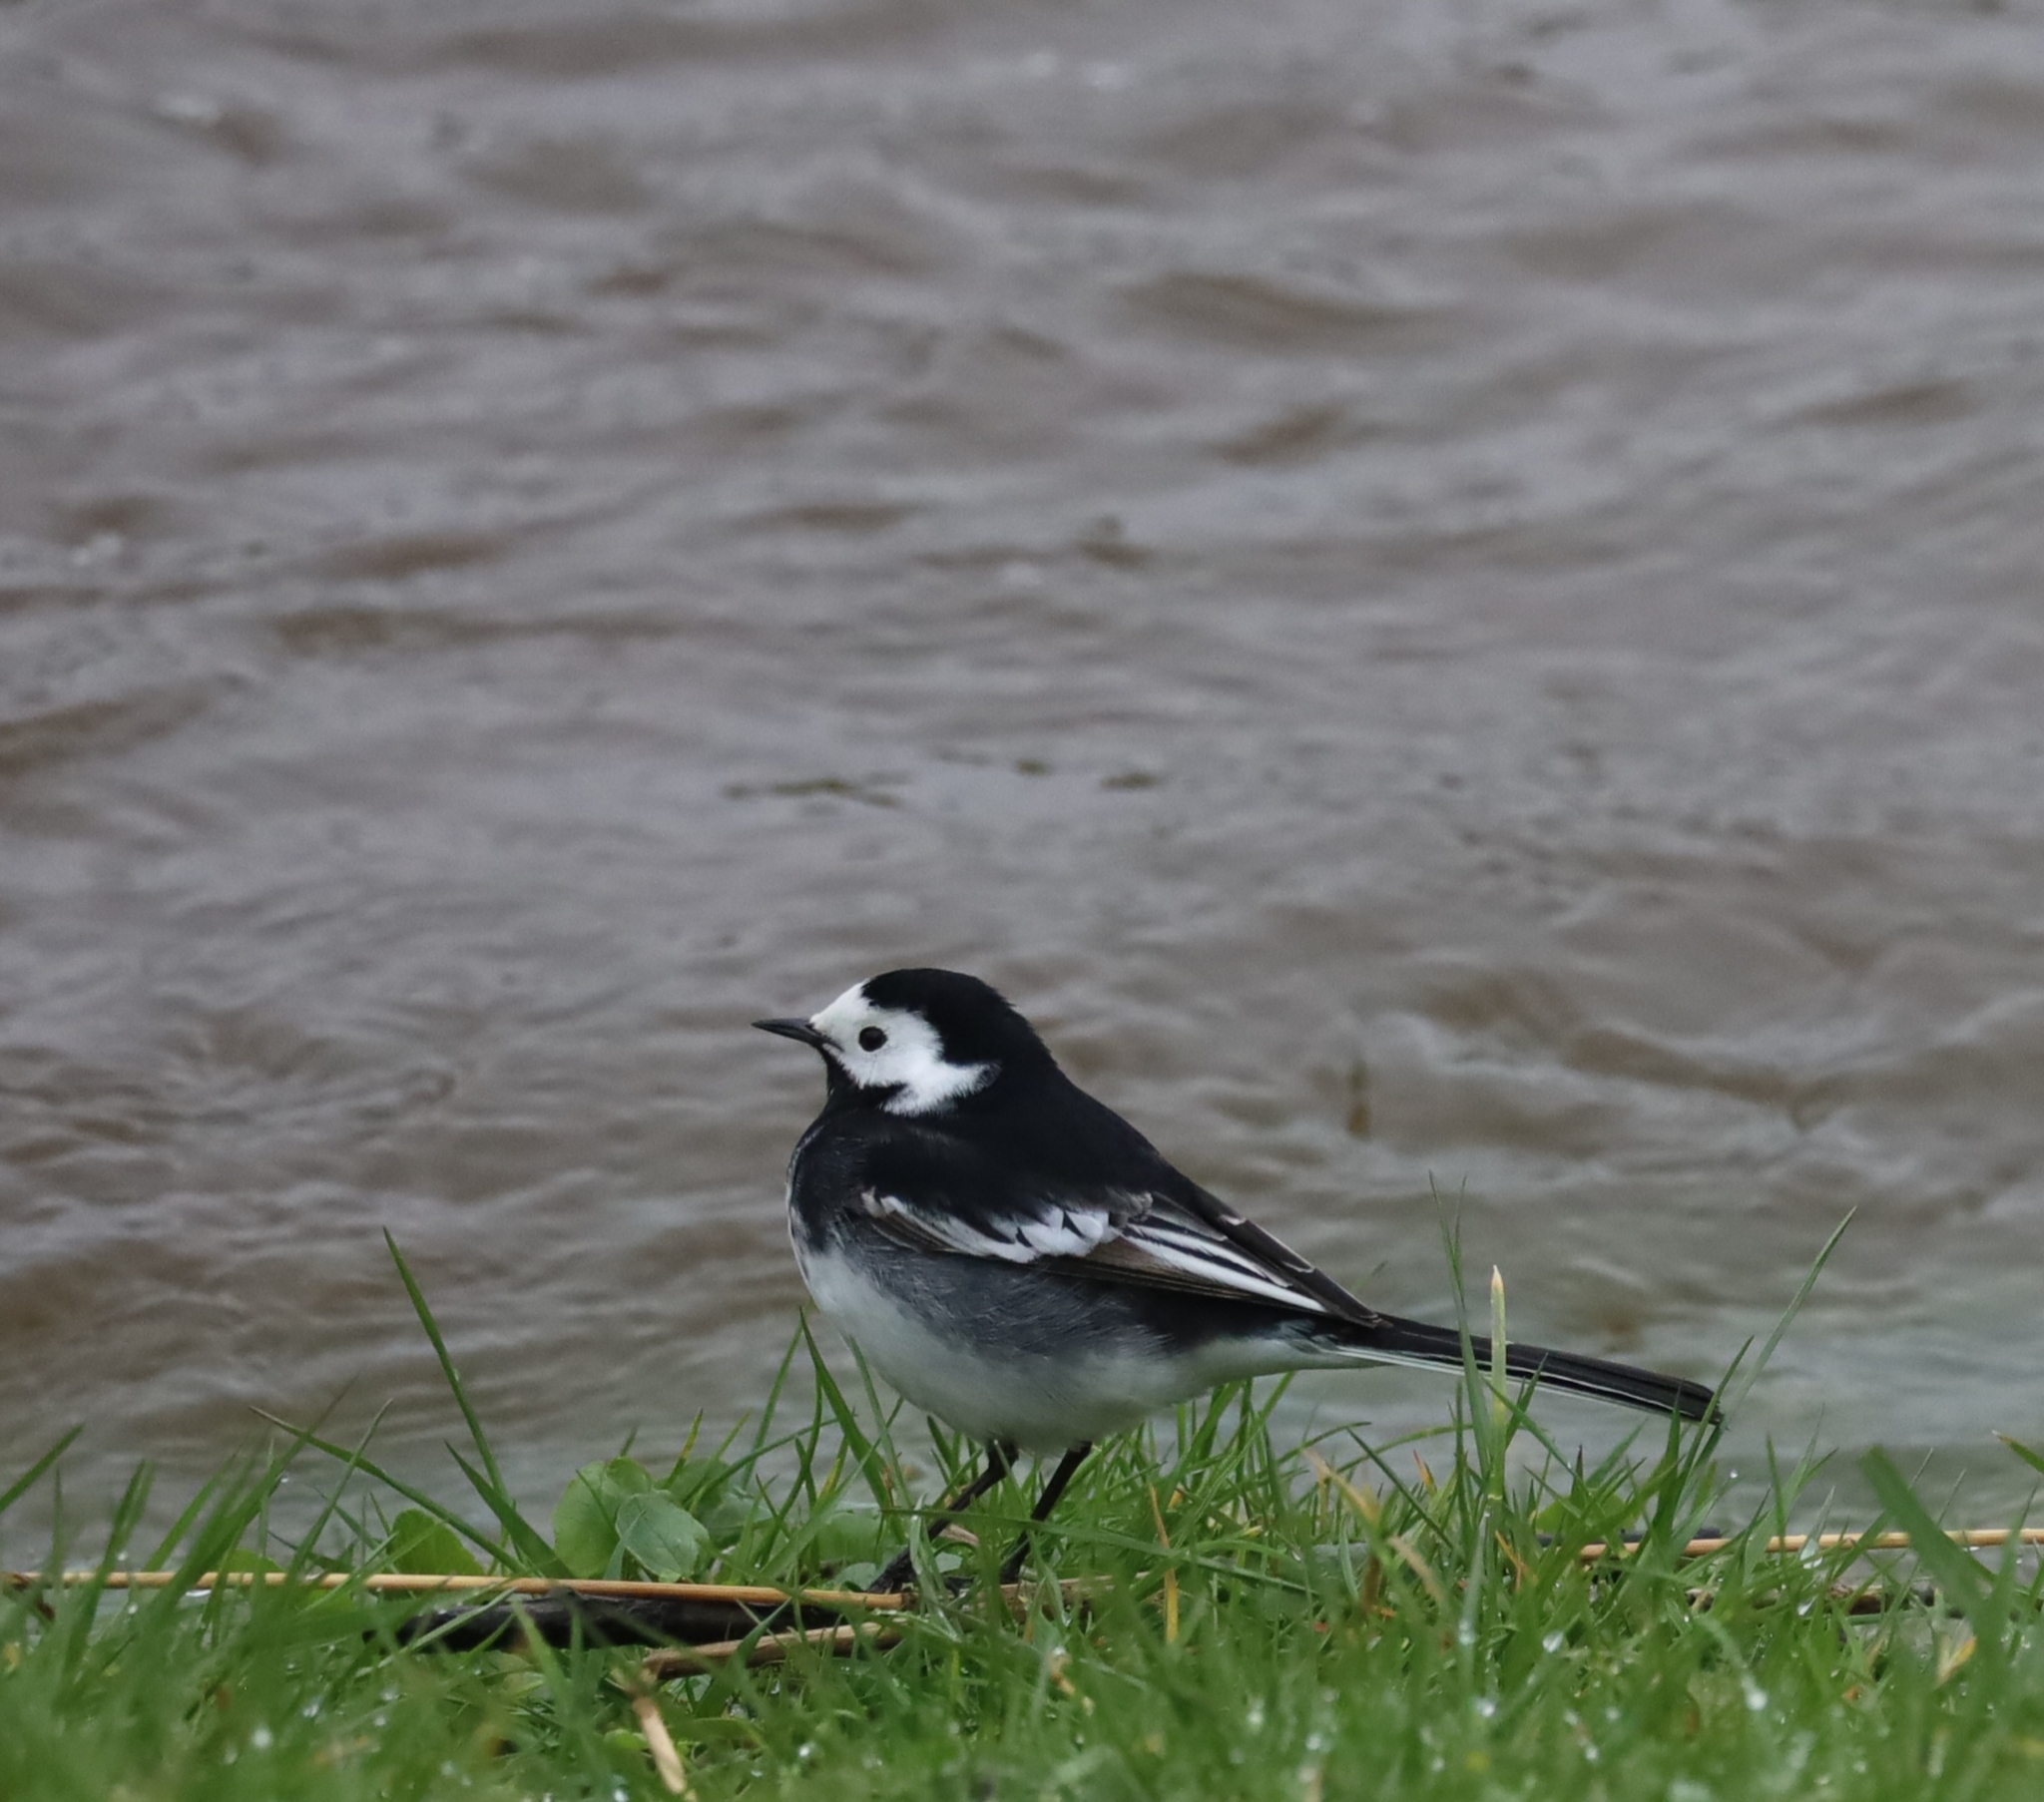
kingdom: Animalia
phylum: Chordata
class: Aves
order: Passeriformes
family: Motacillidae
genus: Motacilla
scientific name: Motacilla alba
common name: White wagtail
